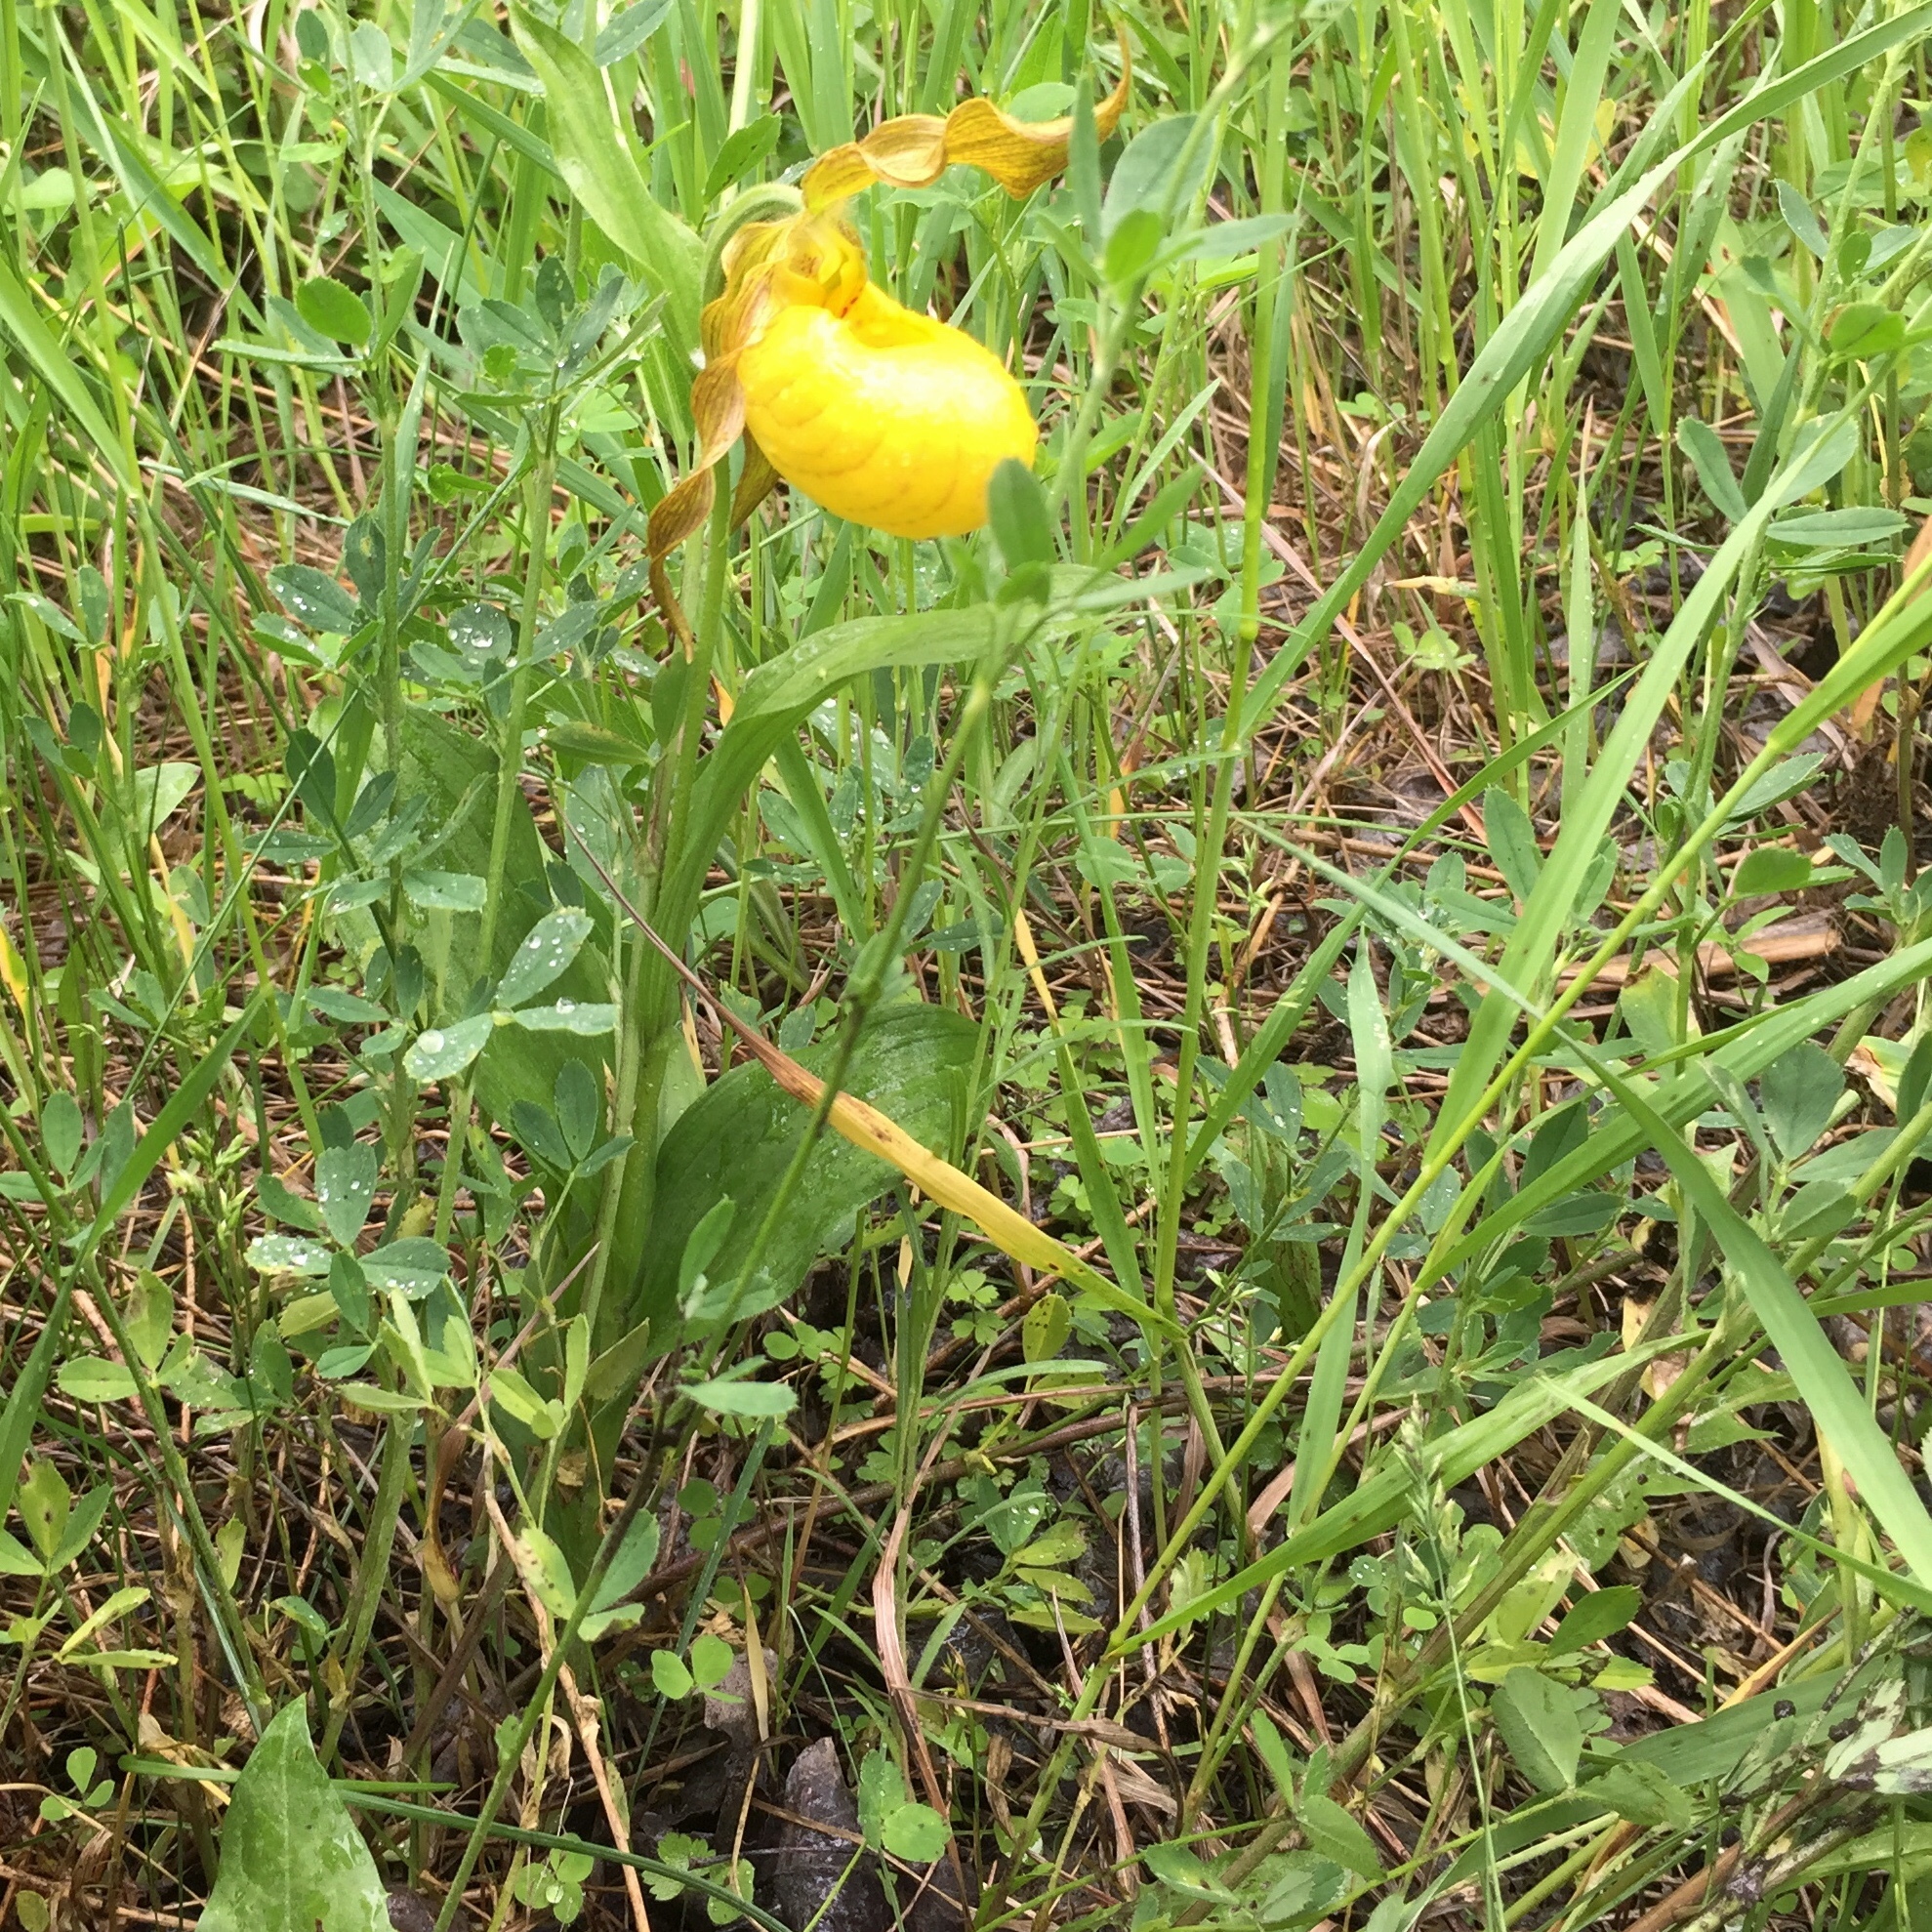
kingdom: Plantae
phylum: Tracheophyta
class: Liliopsida
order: Asparagales
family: Orchidaceae
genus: Cypripedium
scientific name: Cypripedium parviflorum
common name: American yellow lady's-slipper
